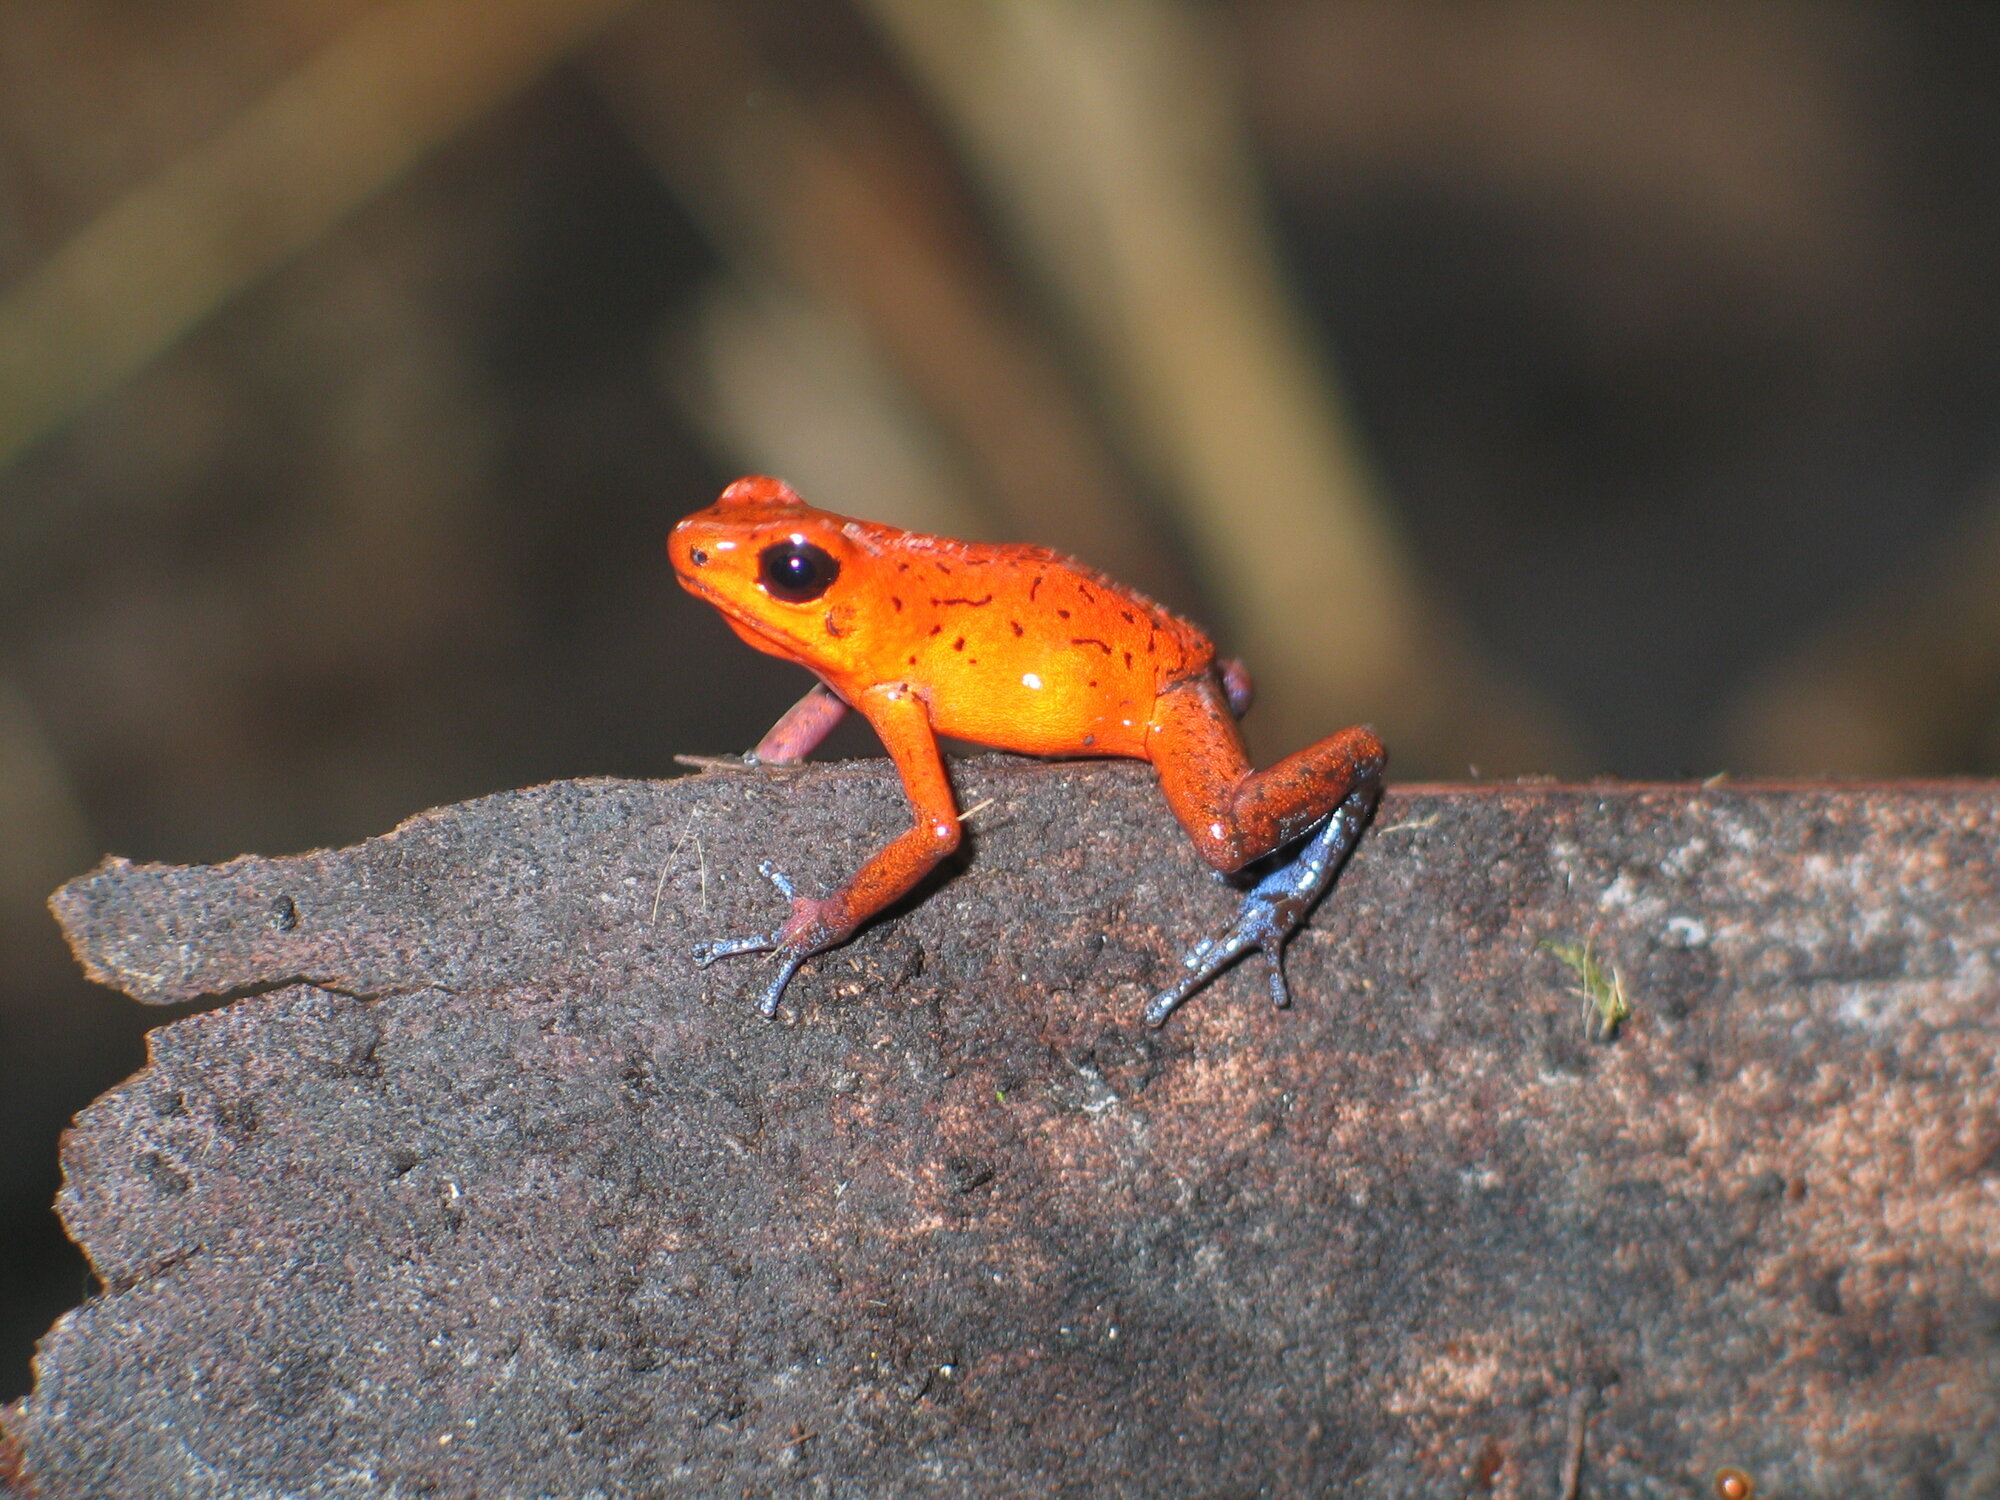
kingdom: Animalia
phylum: Chordata
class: Amphibia
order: Anura
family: Dendrobatidae
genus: Oophaga
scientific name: Oophaga pumilio
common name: Flaming poison frog
